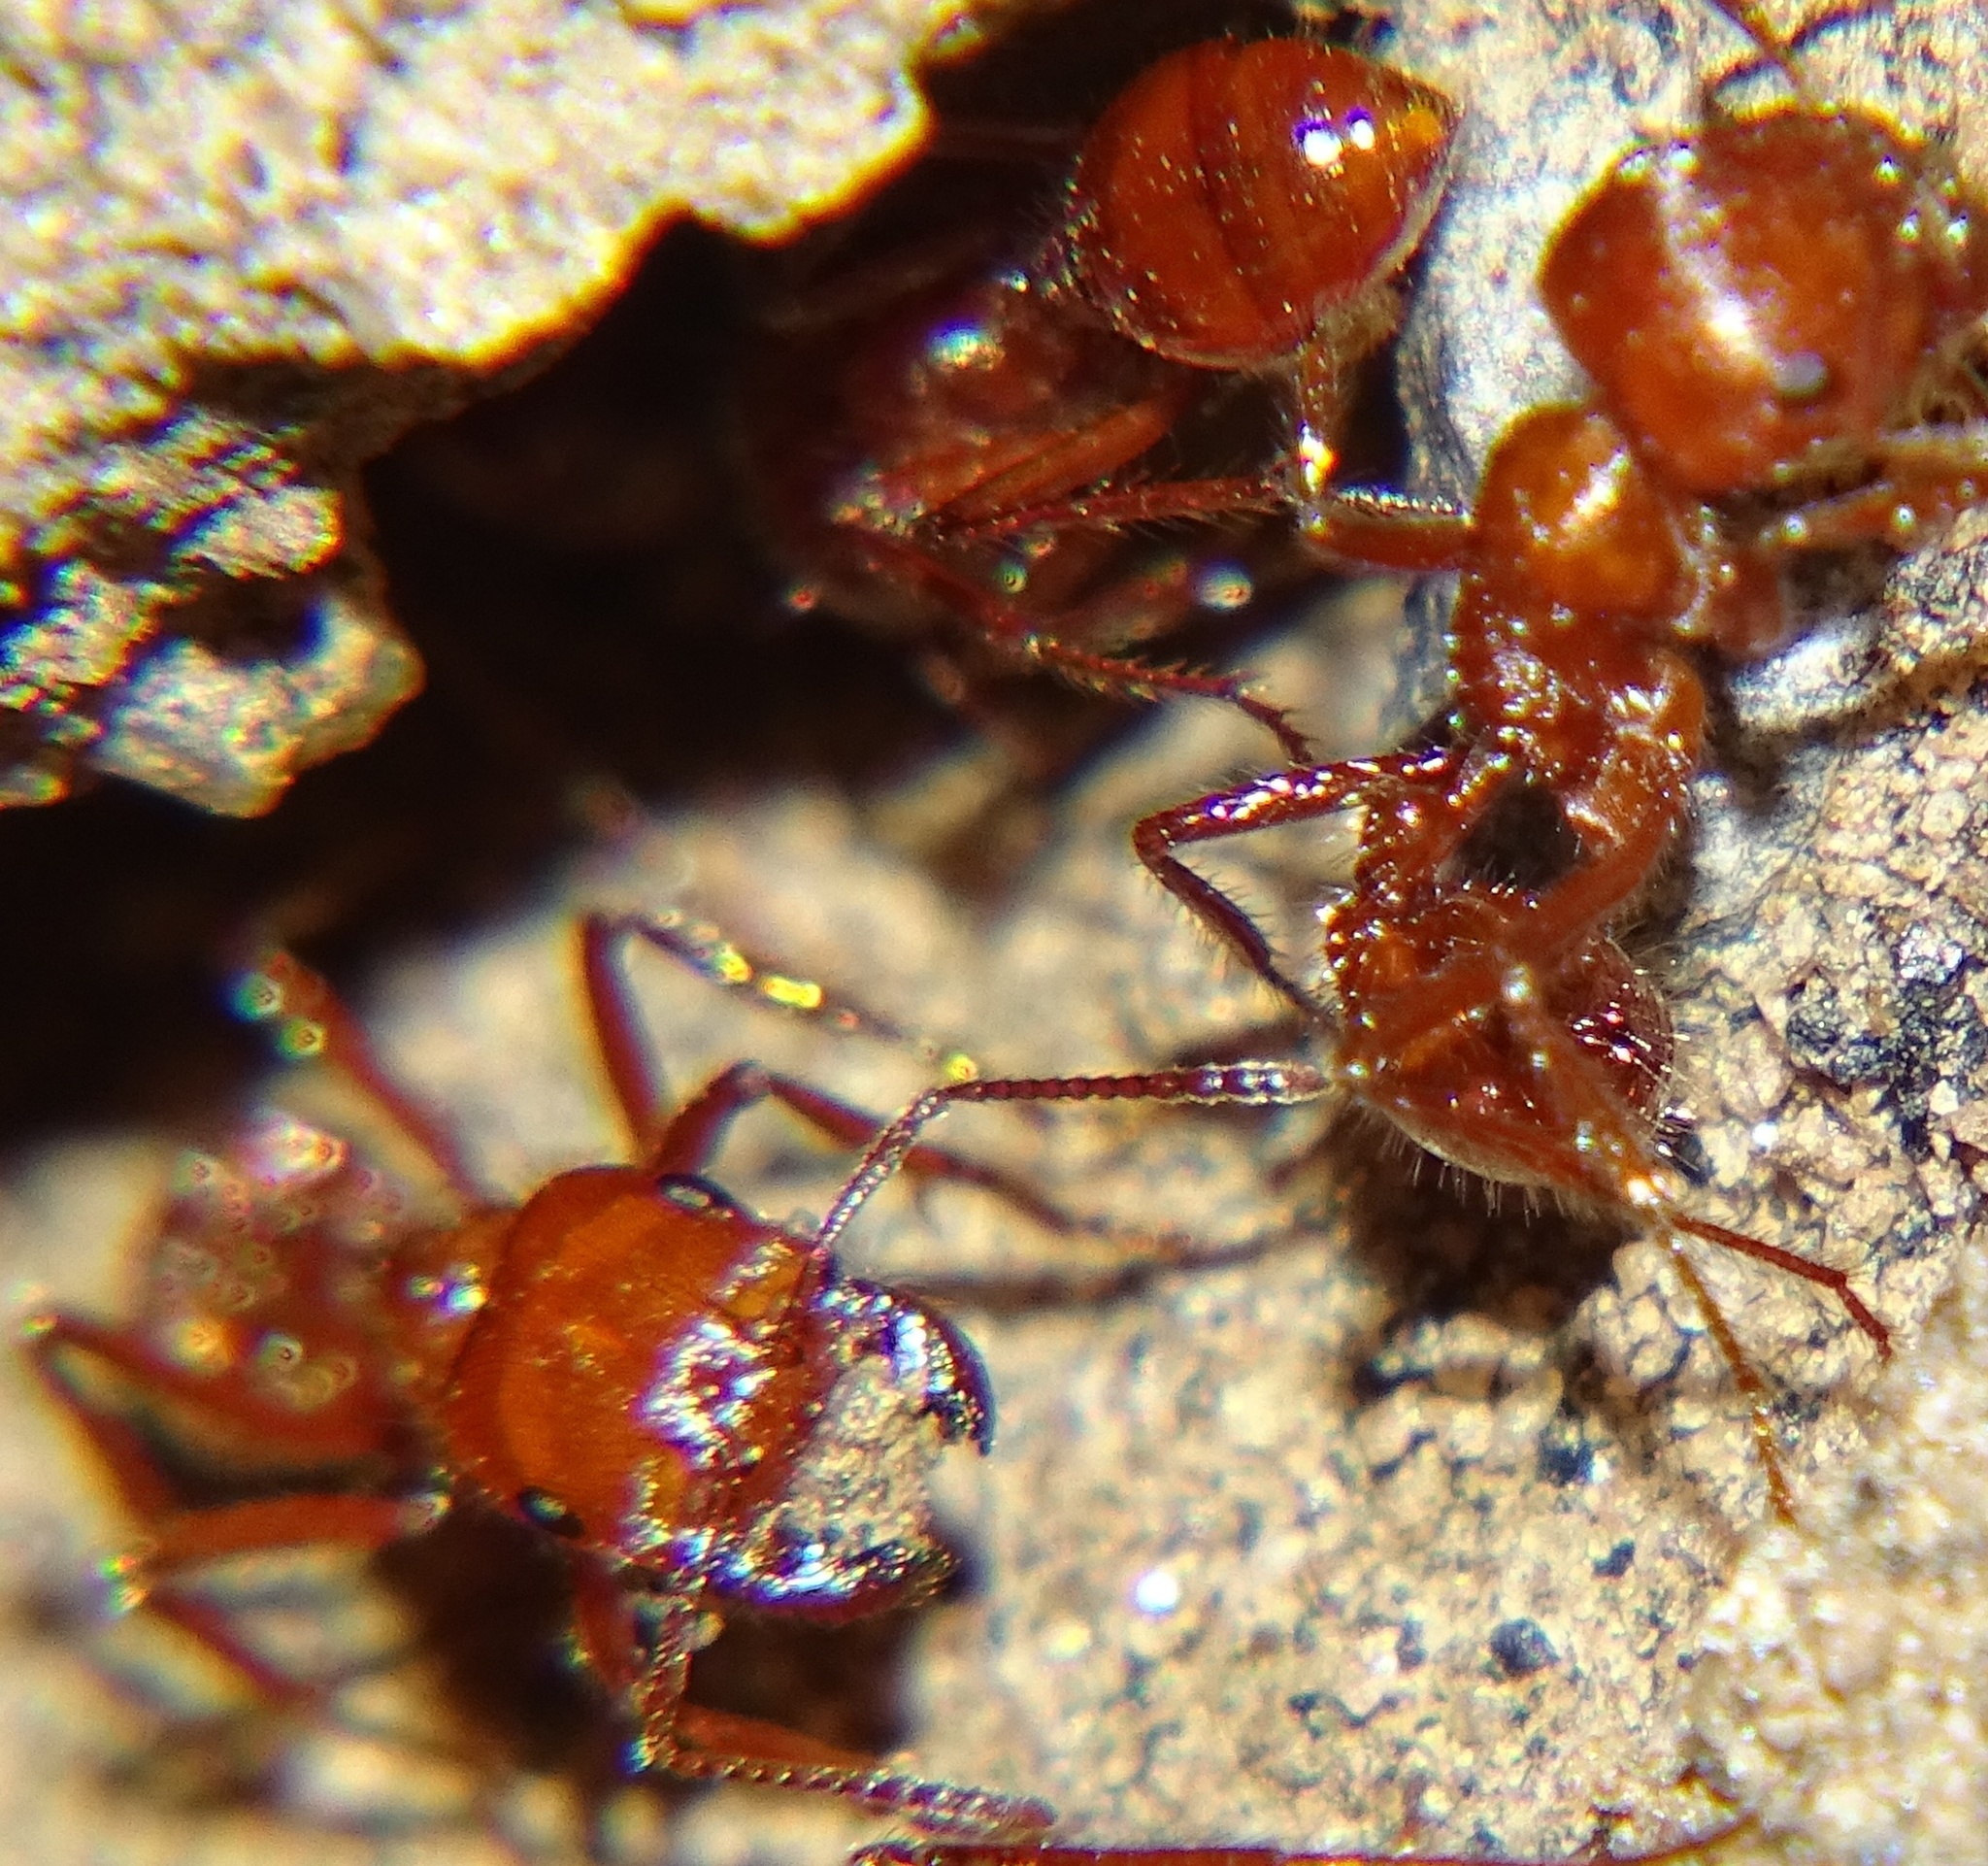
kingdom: Animalia
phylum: Arthropoda
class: Insecta
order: Hymenoptera
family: Formicidae
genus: Pogonomyrmex
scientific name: Pogonomyrmex californicus
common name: California harvester ant
